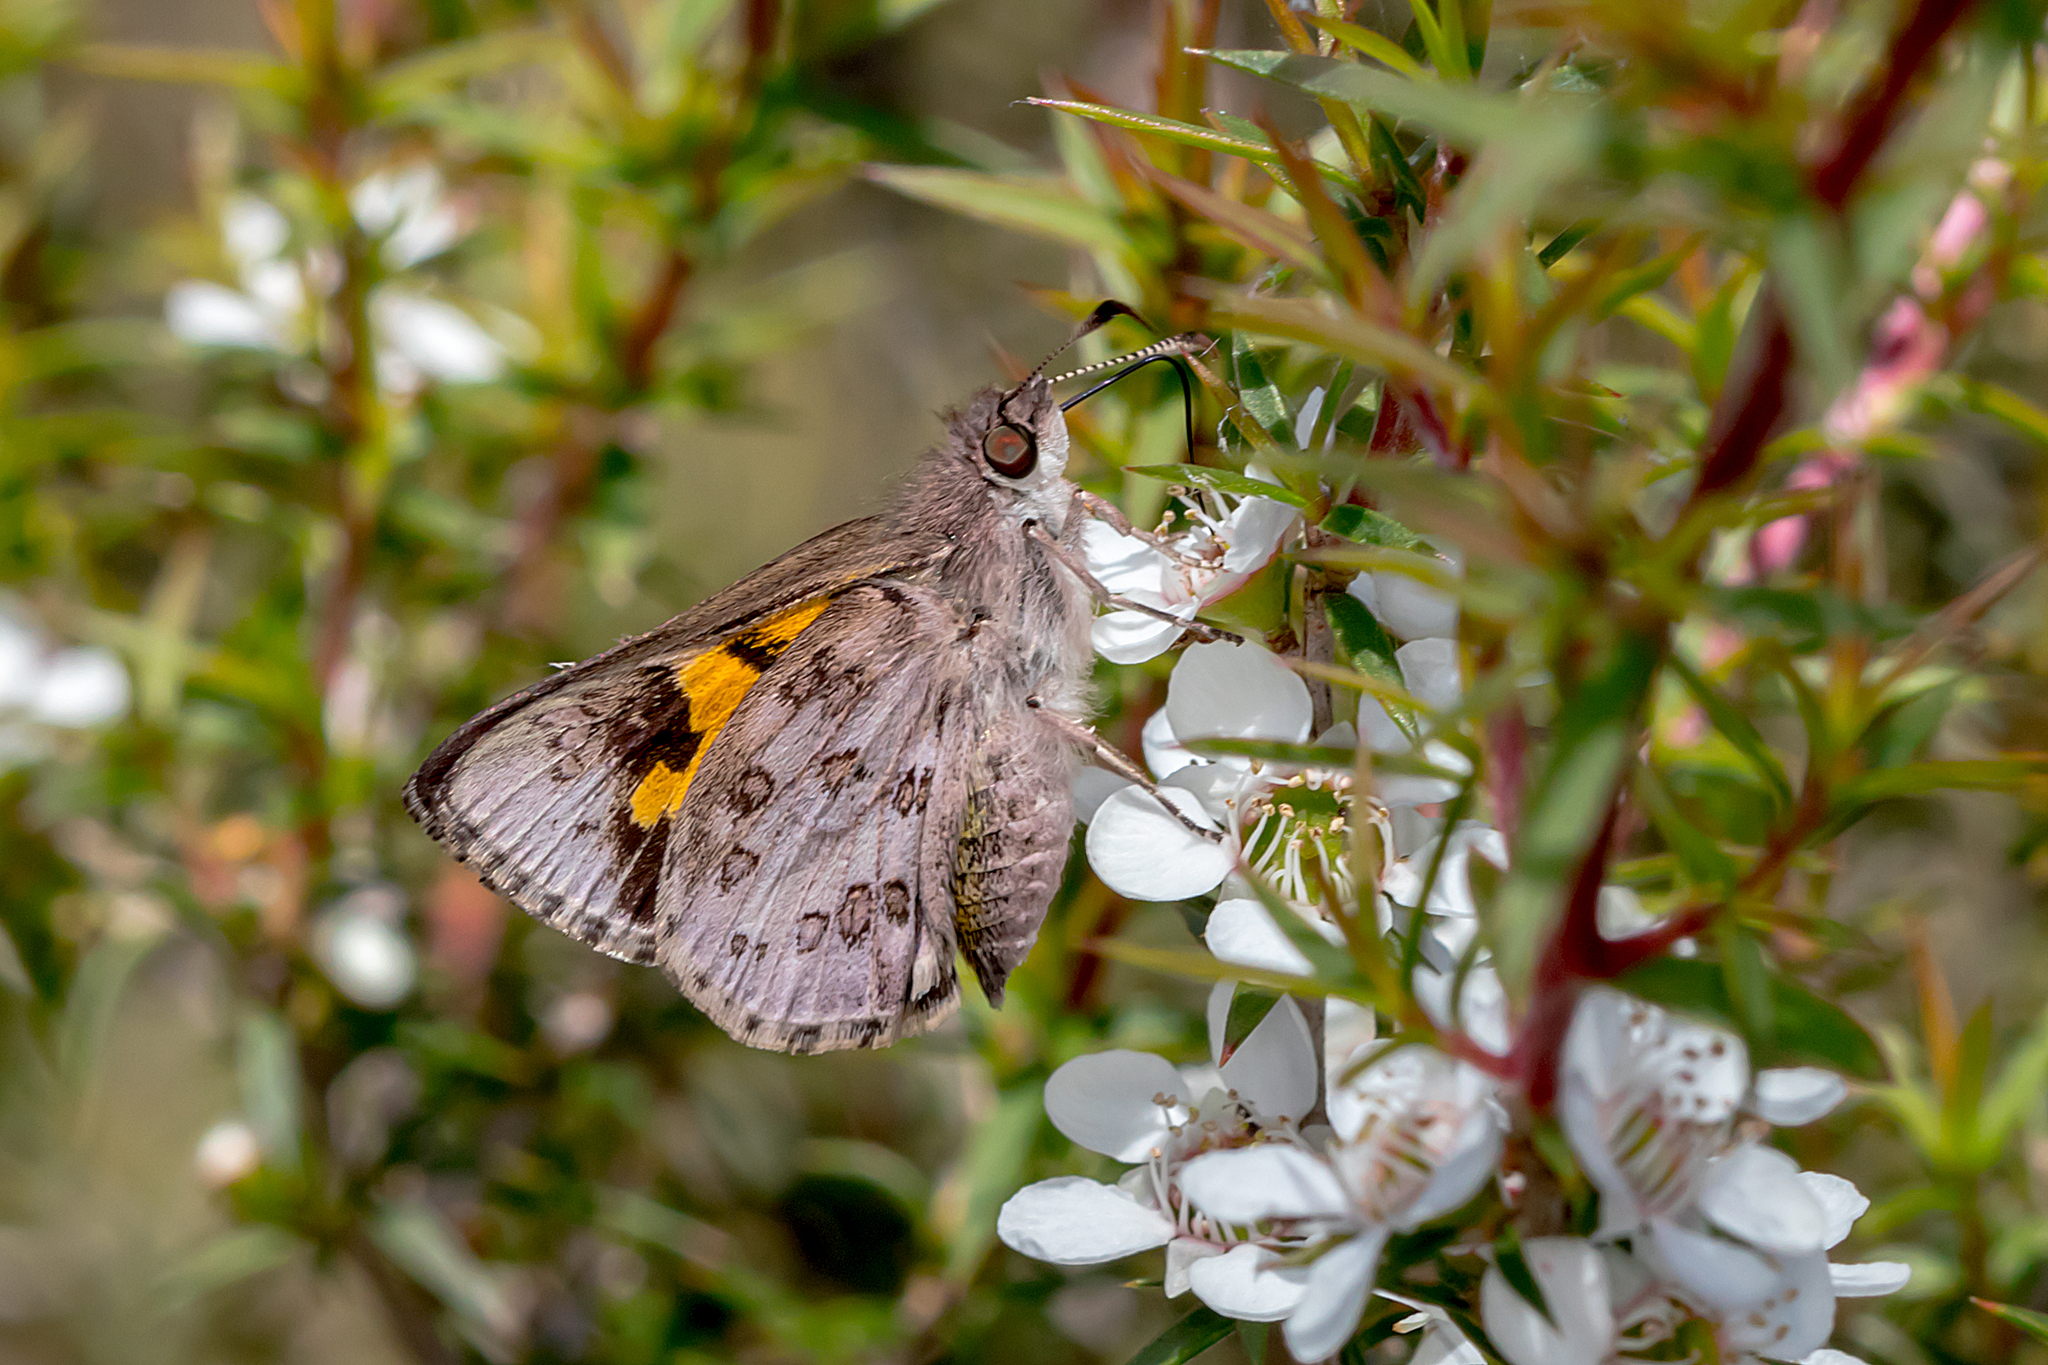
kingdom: Animalia
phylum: Arthropoda
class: Insecta
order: Lepidoptera
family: Hesperiidae
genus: Trapezites
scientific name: Trapezites phigalioides
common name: Montane ochre
